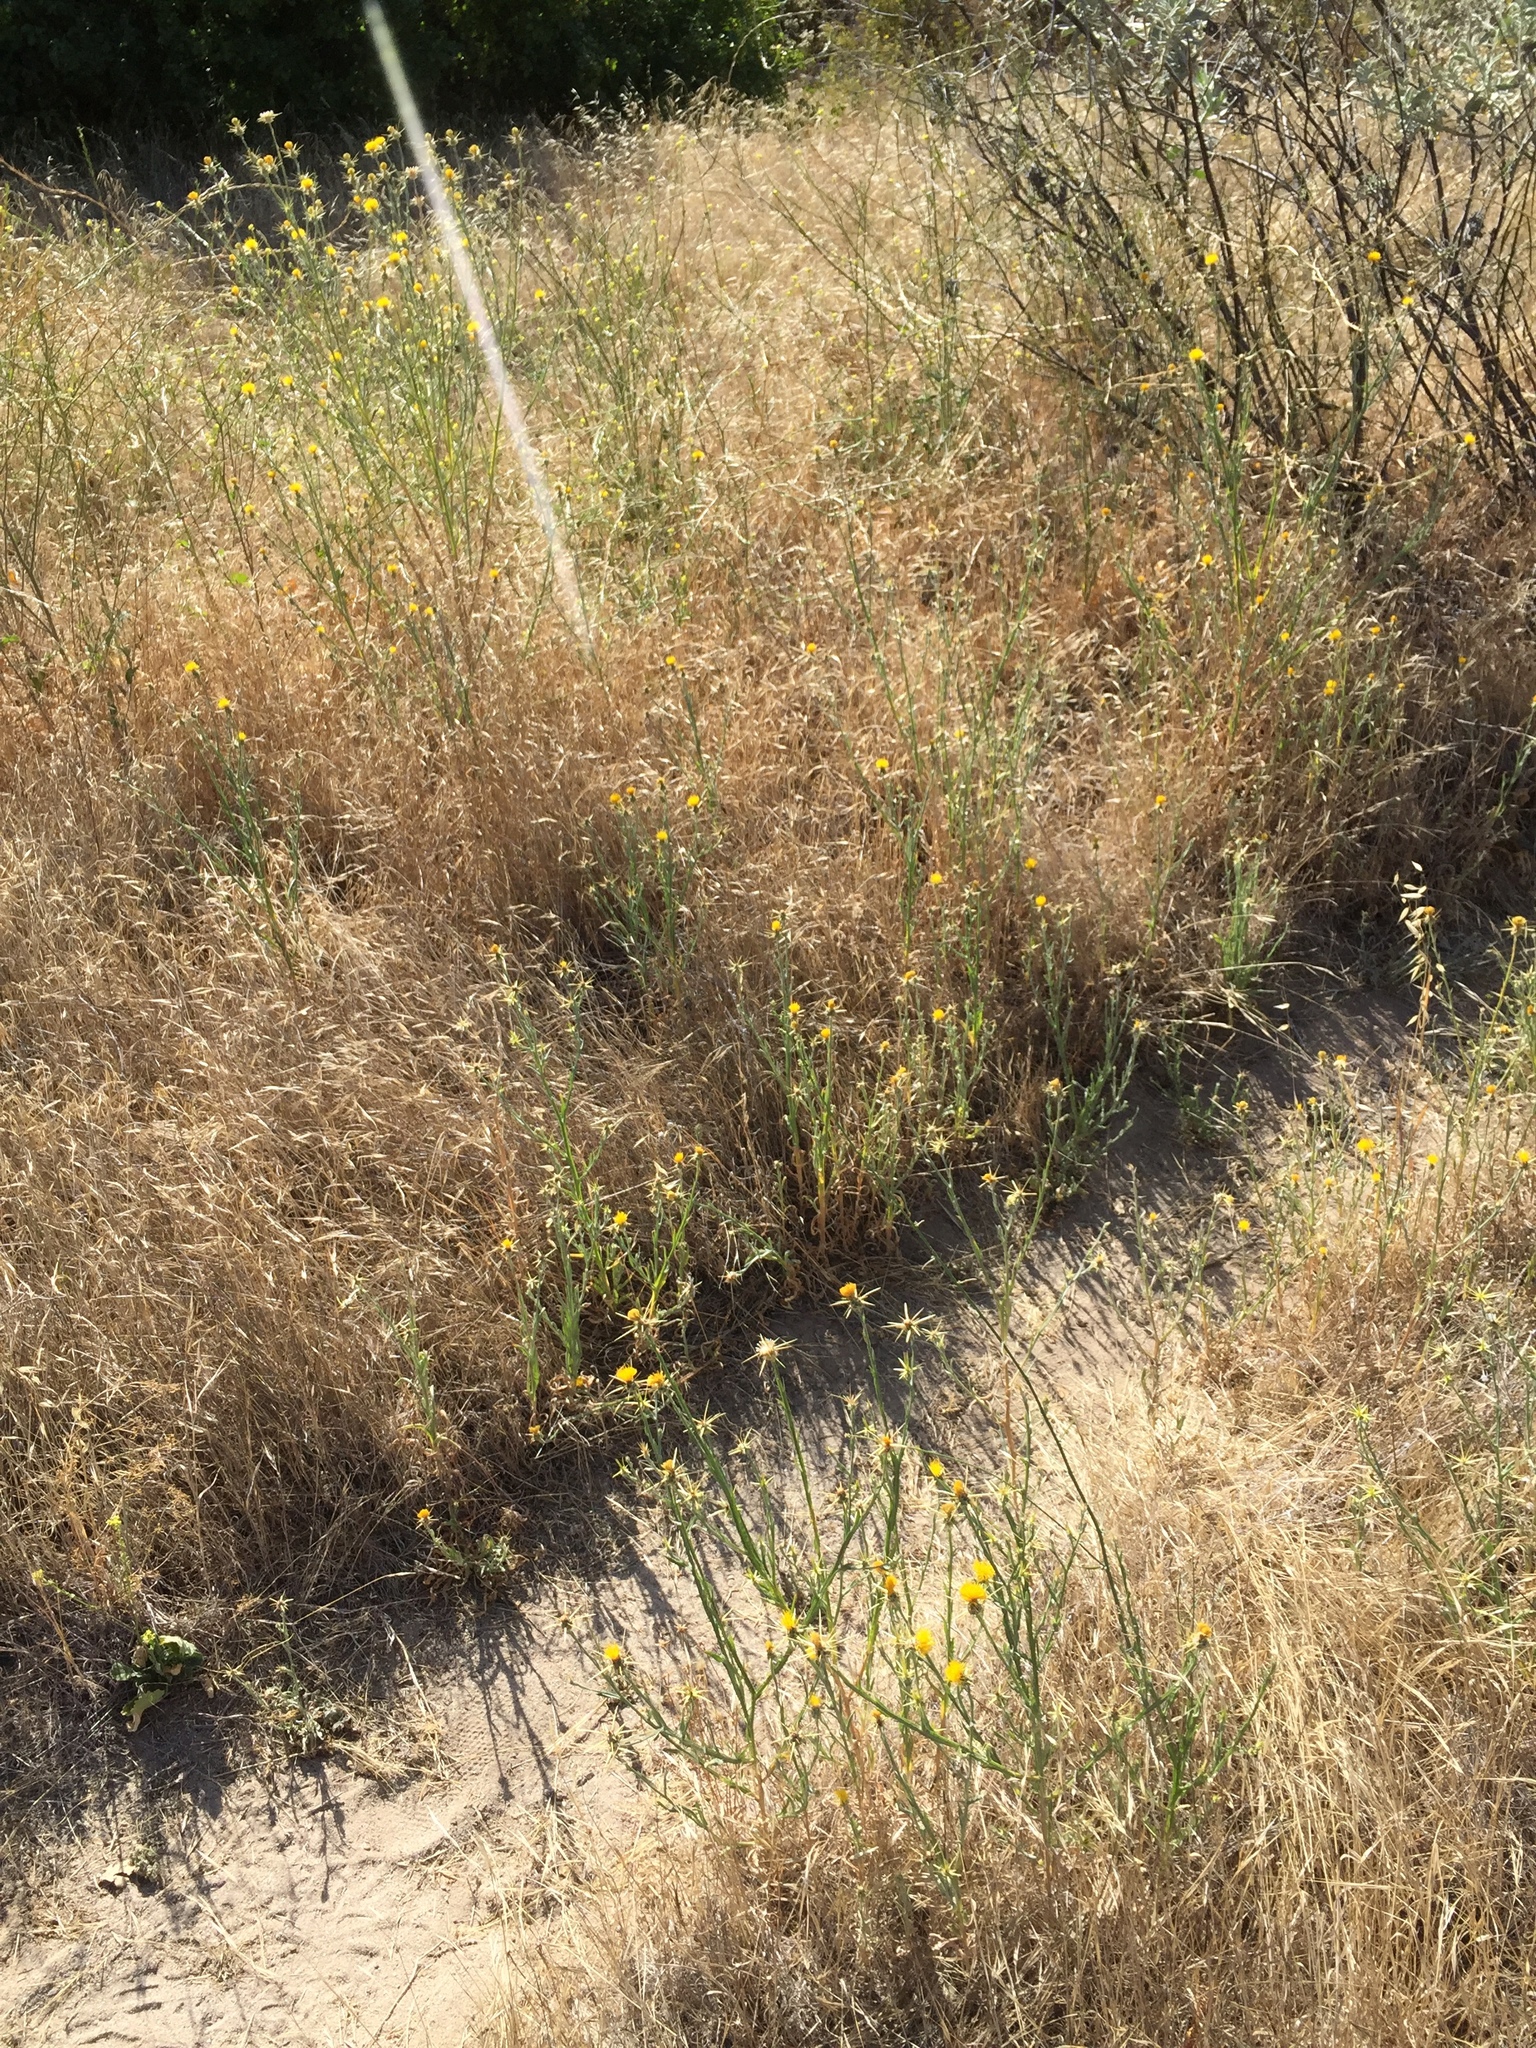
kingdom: Plantae
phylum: Tracheophyta
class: Magnoliopsida
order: Asterales
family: Asteraceae
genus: Centaurea
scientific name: Centaurea solstitialis
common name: Yellow star-thistle
